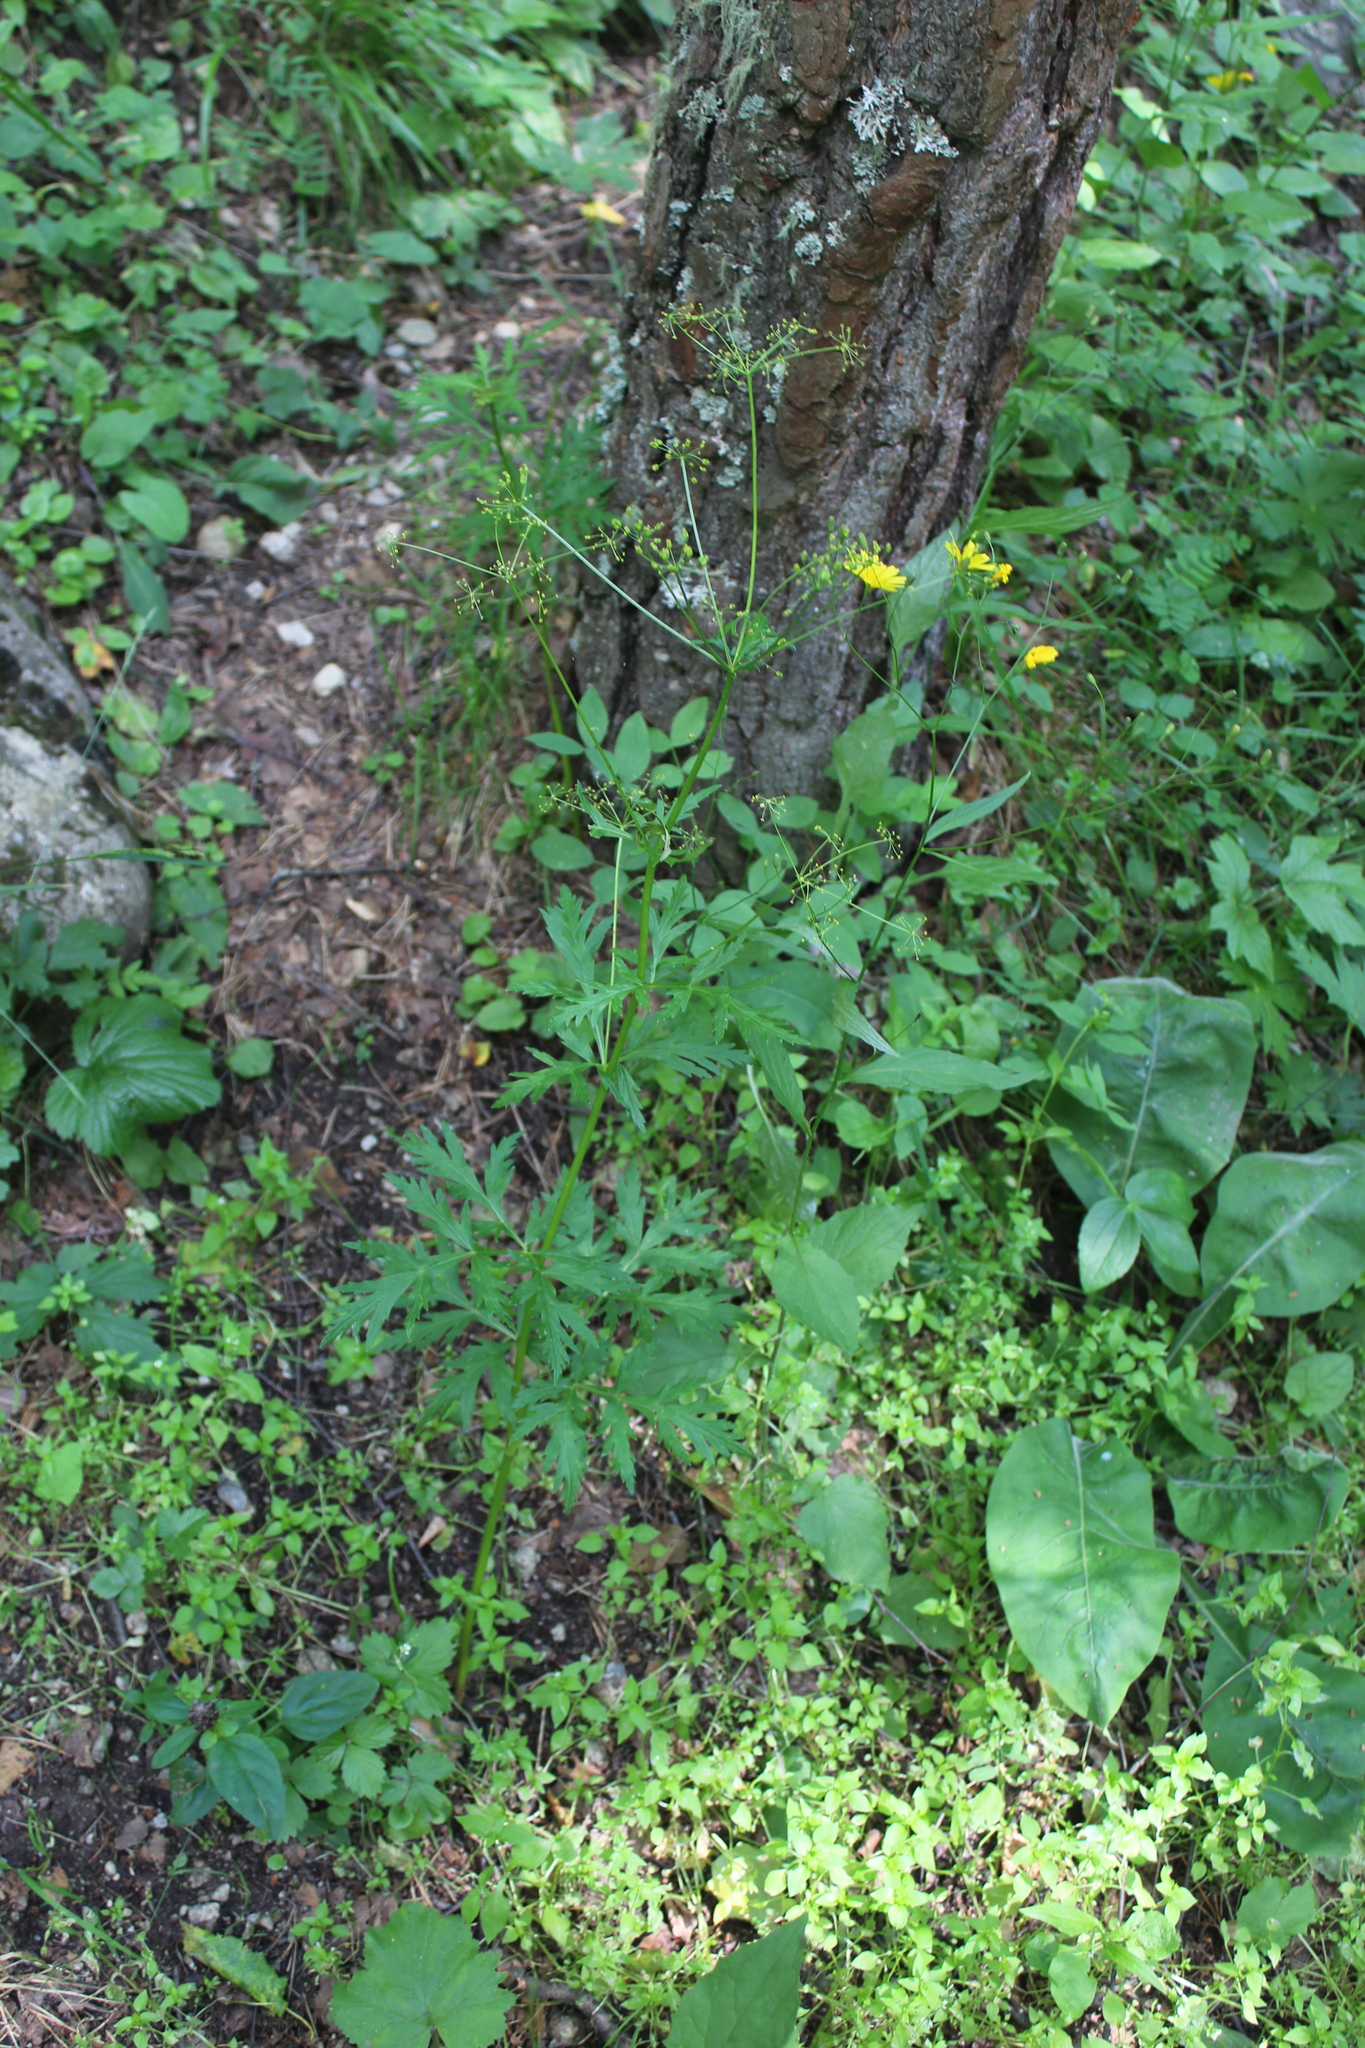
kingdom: Plantae
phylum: Tracheophyta
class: Magnoliopsida
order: Apiales
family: Apiaceae
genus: Eleutherospermum
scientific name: Eleutherospermum cicutarium
